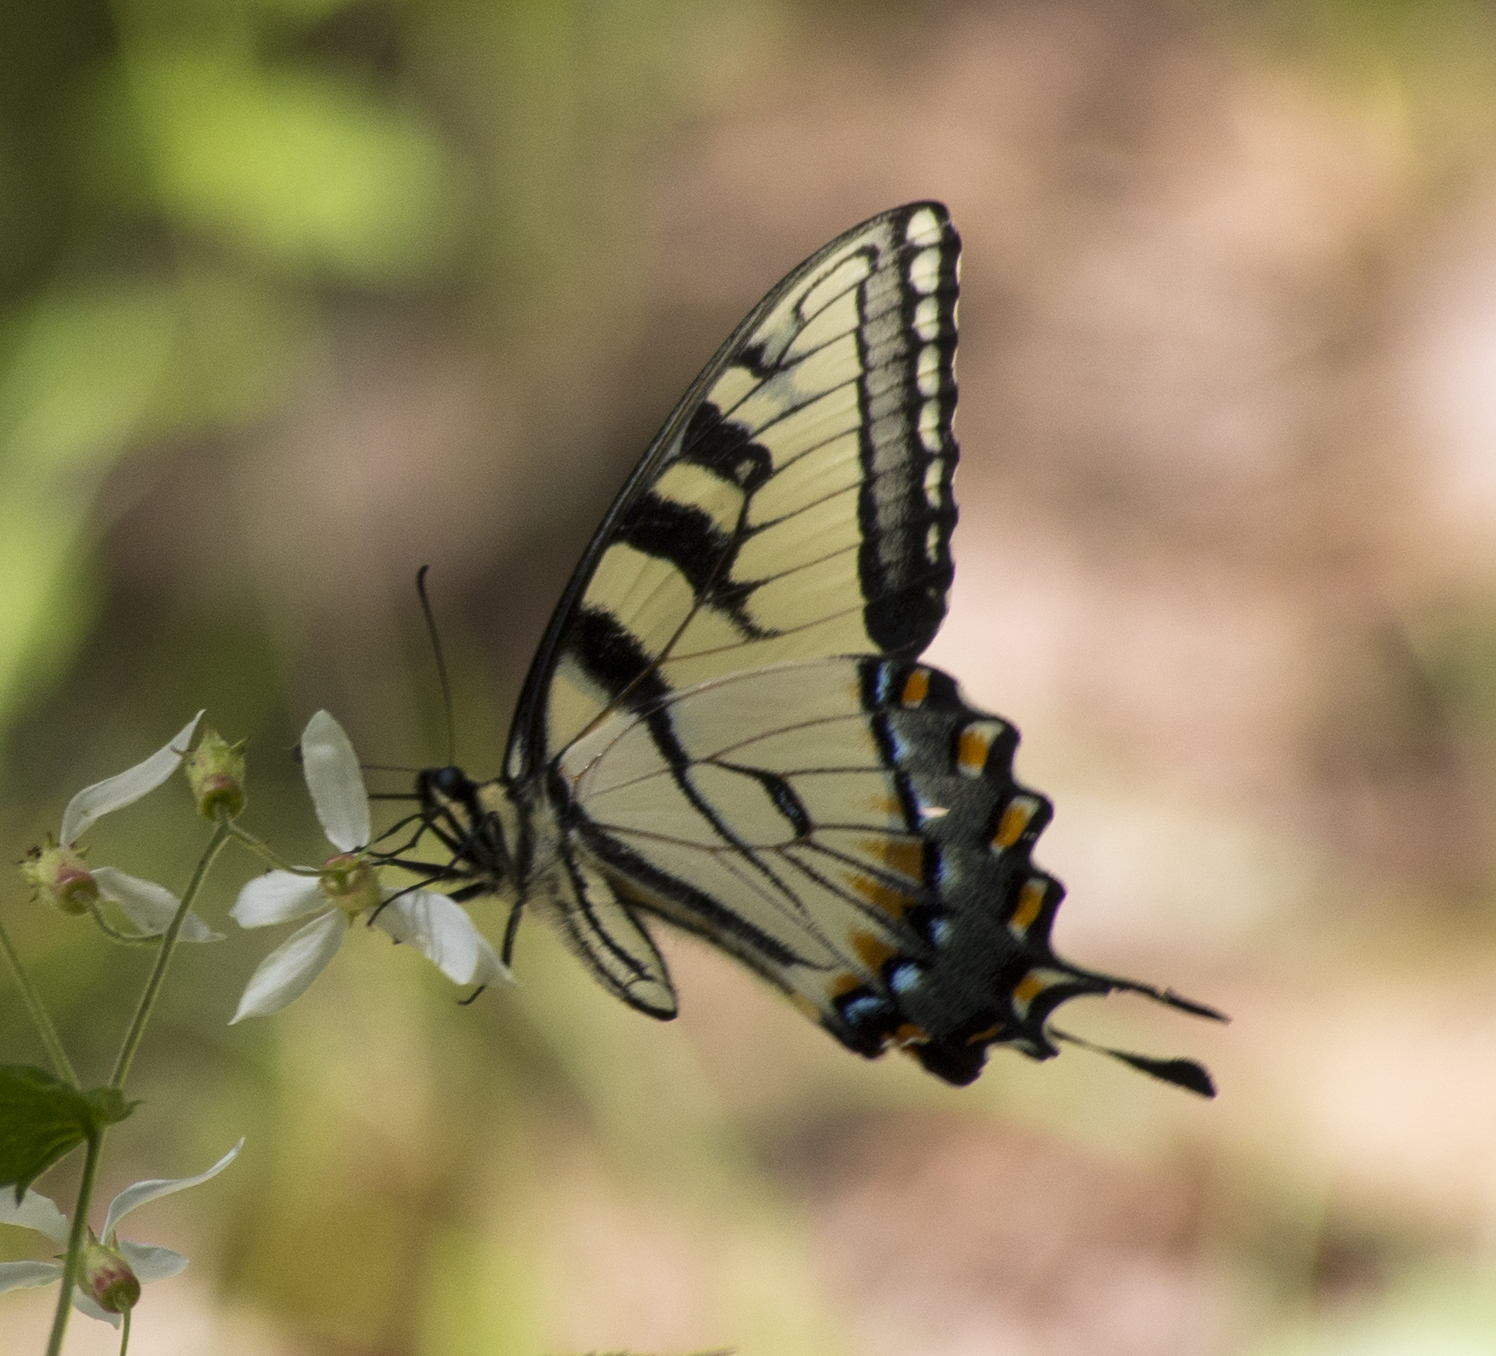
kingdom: Animalia
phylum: Arthropoda
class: Insecta
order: Lepidoptera
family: Papilionidae
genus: Papilio
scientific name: Papilio glaucus
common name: Tiger swallowtail
